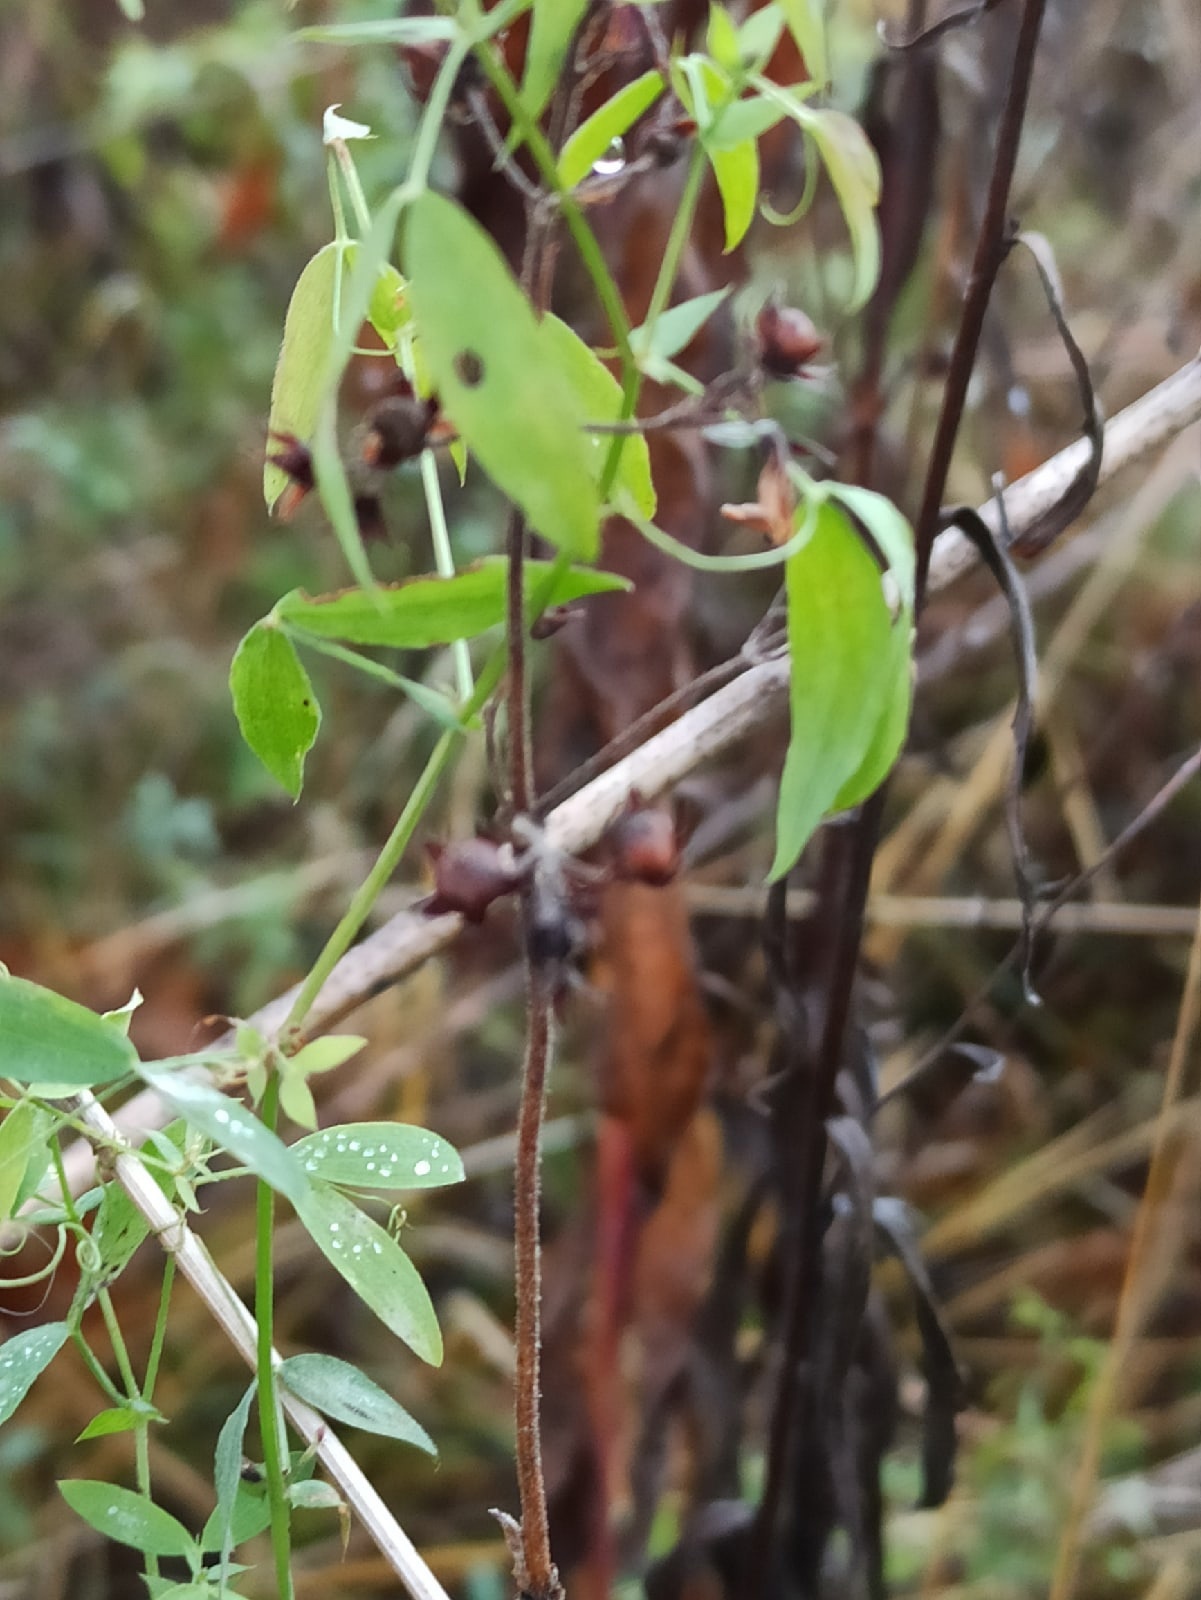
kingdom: Plantae
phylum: Tracheophyta
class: Magnoliopsida
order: Fabales
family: Fabaceae
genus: Lathyrus
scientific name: Lathyrus pratensis
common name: Meadow vetchling
